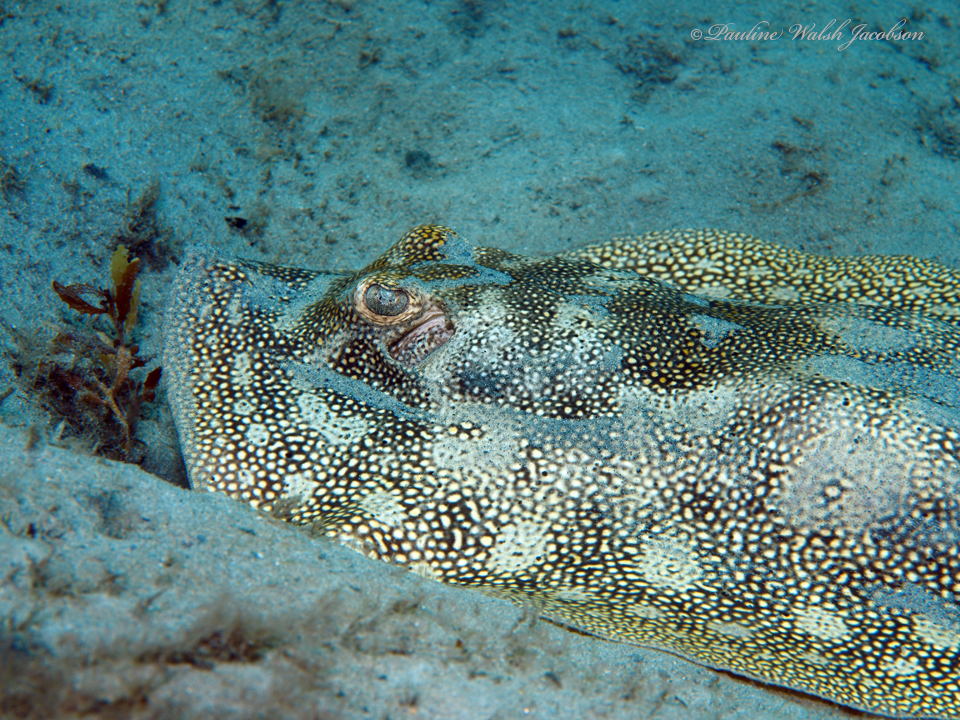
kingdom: Animalia
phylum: Chordata
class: Elasmobranchii
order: Myliobatiformes
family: Urotrygonidae
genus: Urobatis
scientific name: Urobatis jamaicensis
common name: Yellow stingray
